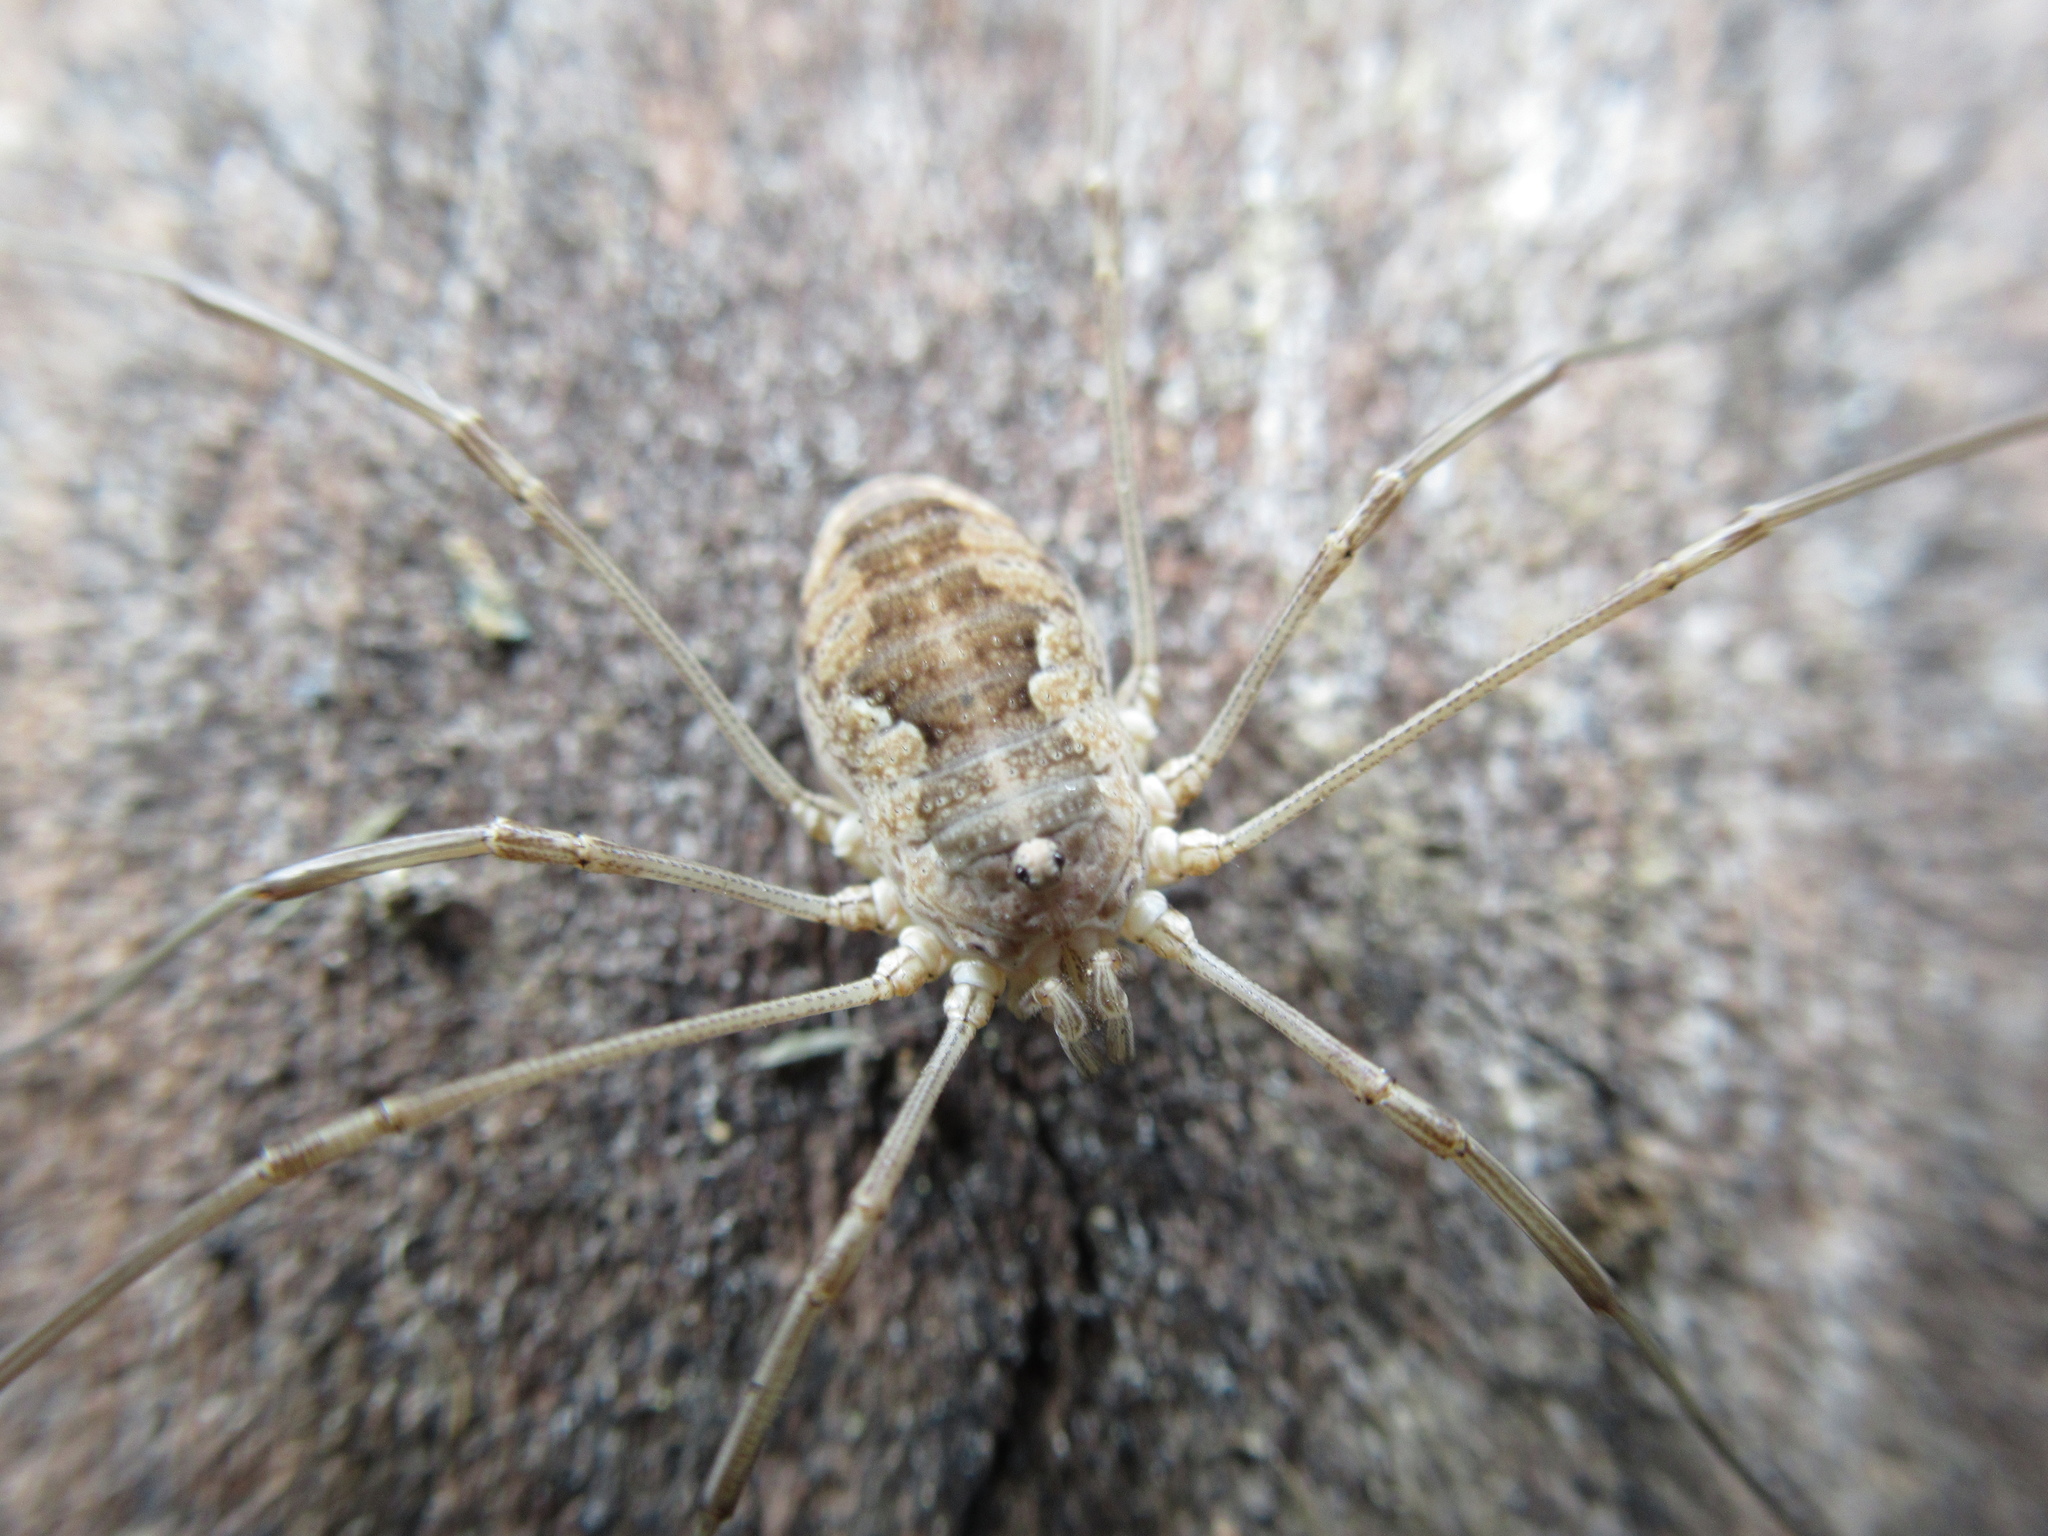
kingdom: Animalia
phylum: Arthropoda
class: Arachnida
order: Opiliones
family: Phalangiidae
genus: Phalangium
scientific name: Phalangium opilio
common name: Daddy longleg
